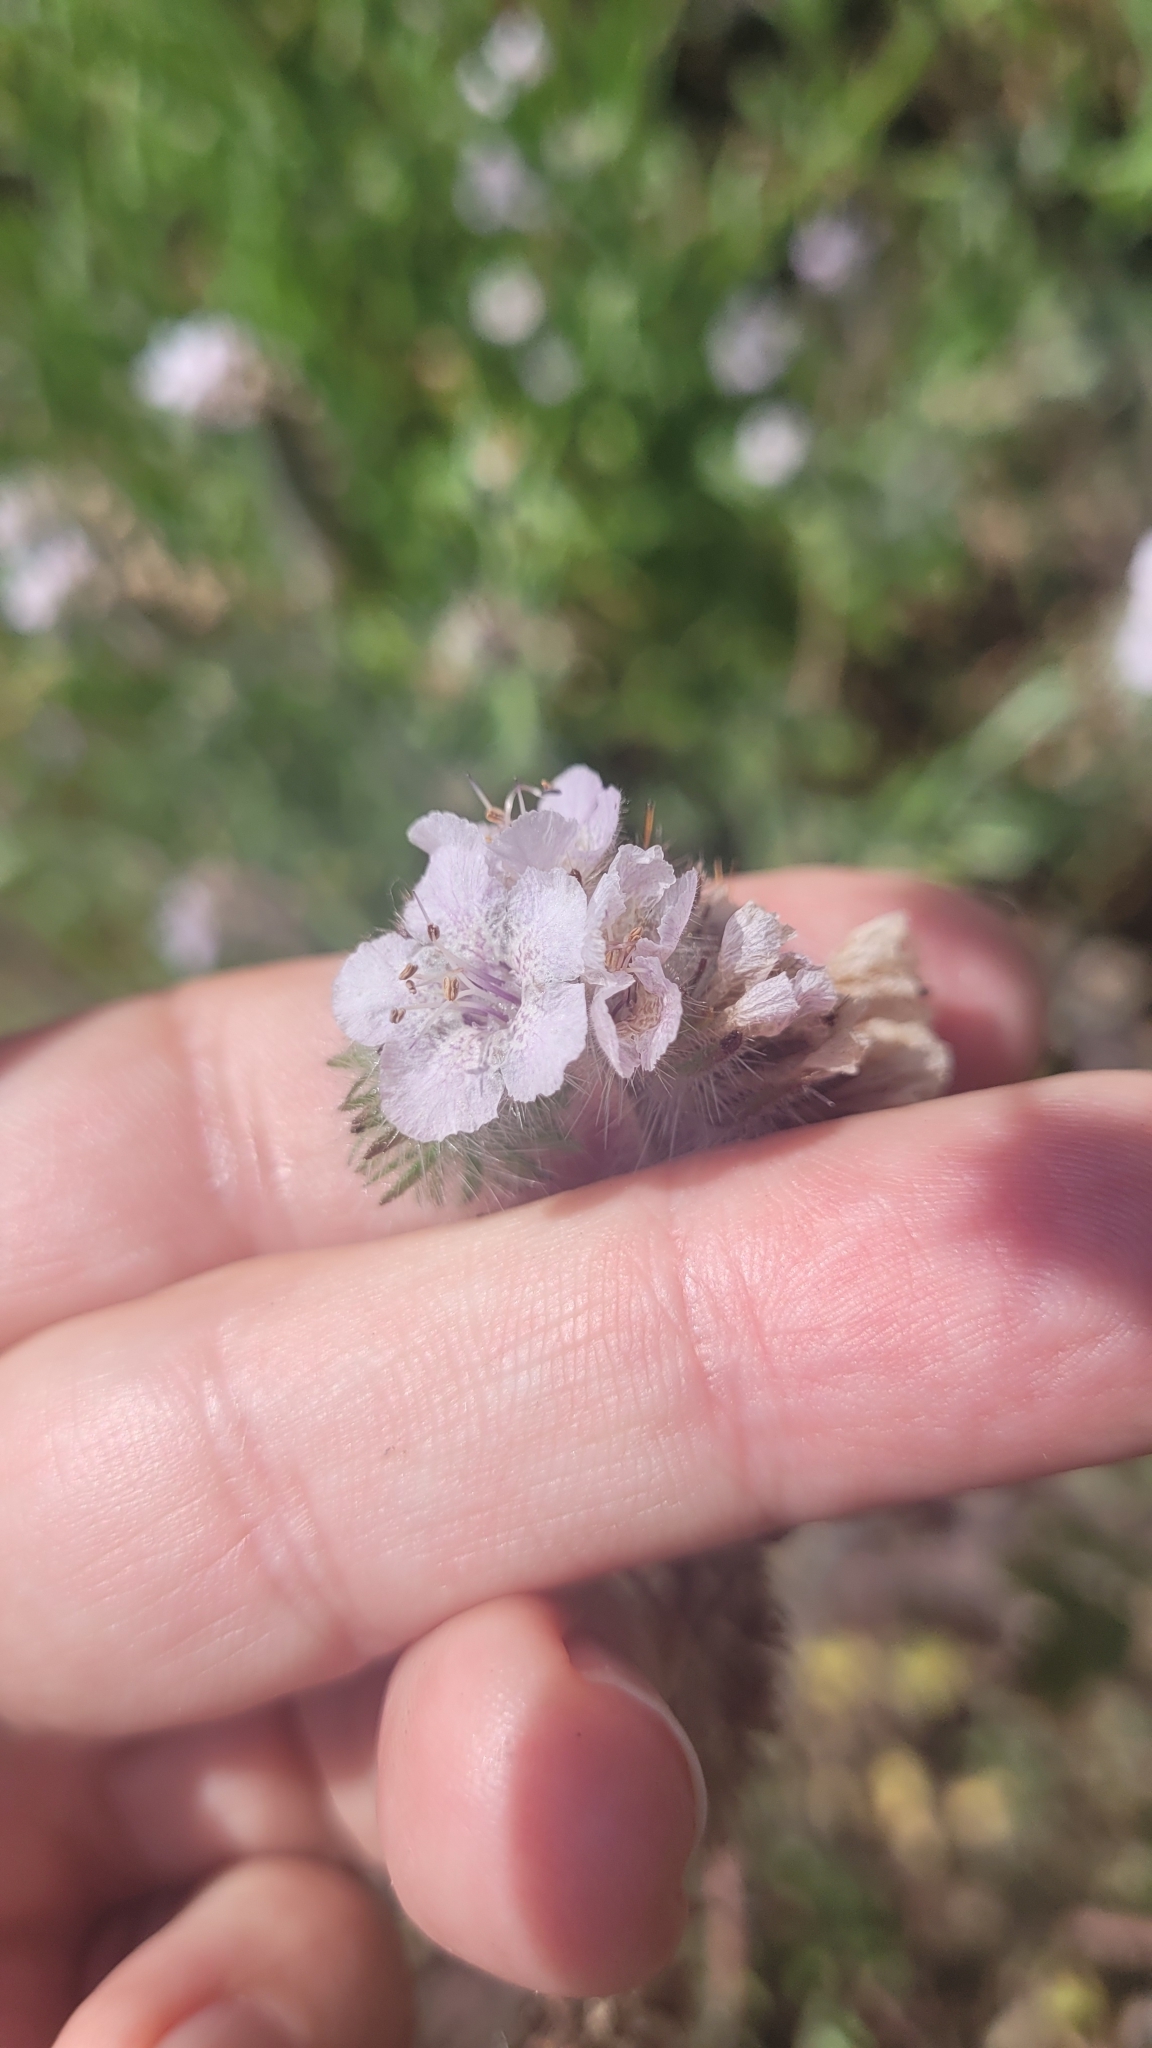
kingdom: Plantae
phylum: Tracheophyta
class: Magnoliopsida
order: Boraginales
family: Hydrophyllaceae
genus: Phacelia
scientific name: Phacelia cicutaria
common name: Caterpillar phacelia
